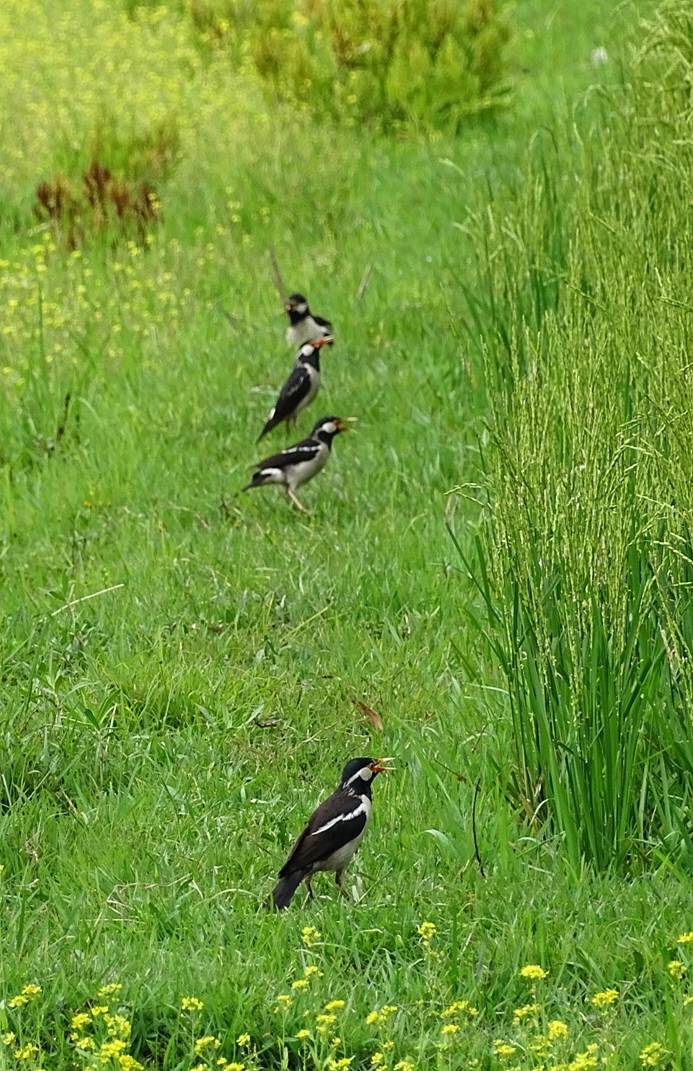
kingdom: Animalia
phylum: Chordata
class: Aves
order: Passeriformes
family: Sturnidae
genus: Gracupica
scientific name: Gracupica contra
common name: Pied myna
